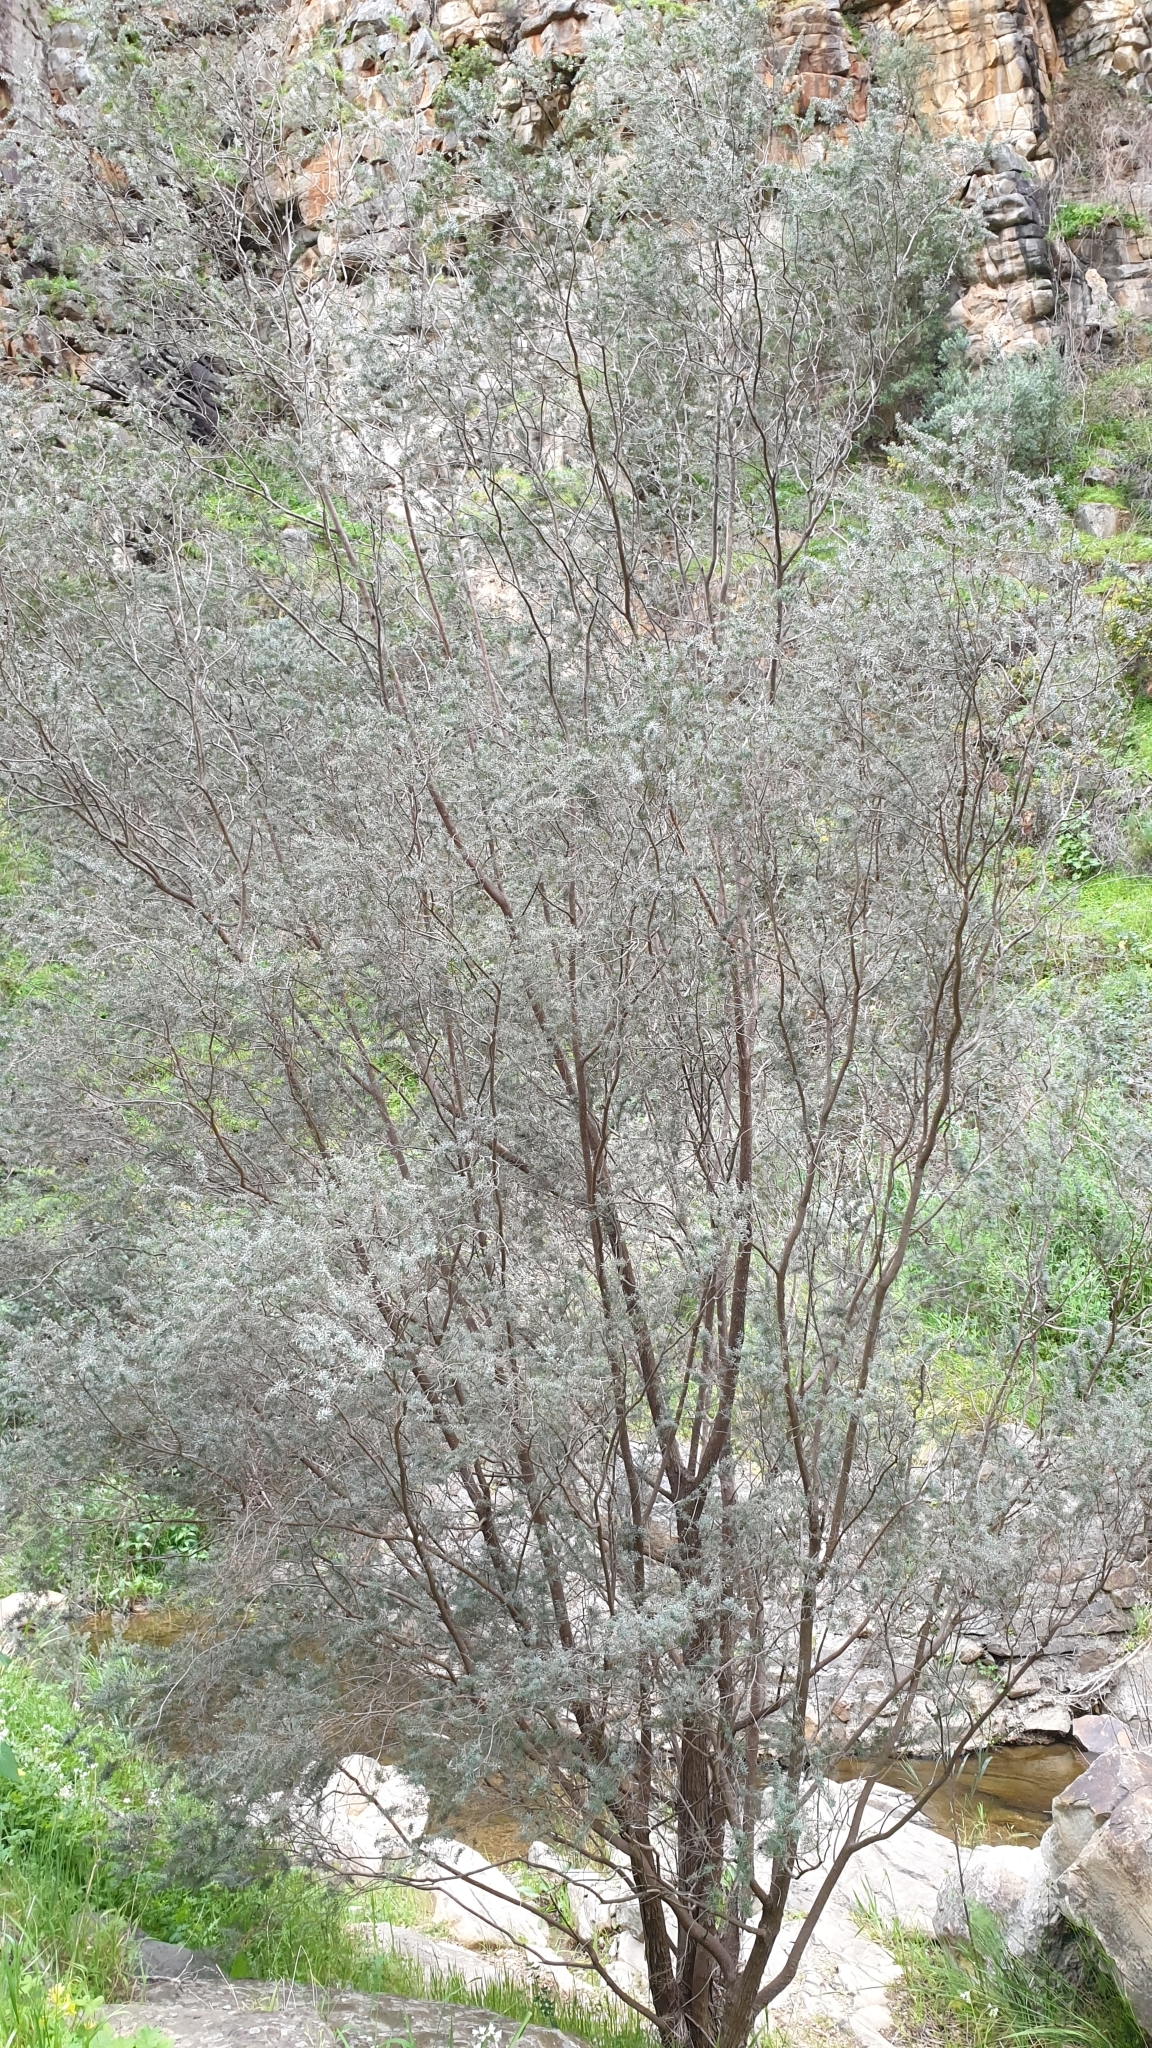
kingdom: Plantae
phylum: Tracheophyta
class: Magnoliopsida
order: Myrtales
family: Myrtaceae
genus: Leptospermum
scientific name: Leptospermum lanigerum
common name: Woolly tea-tree
